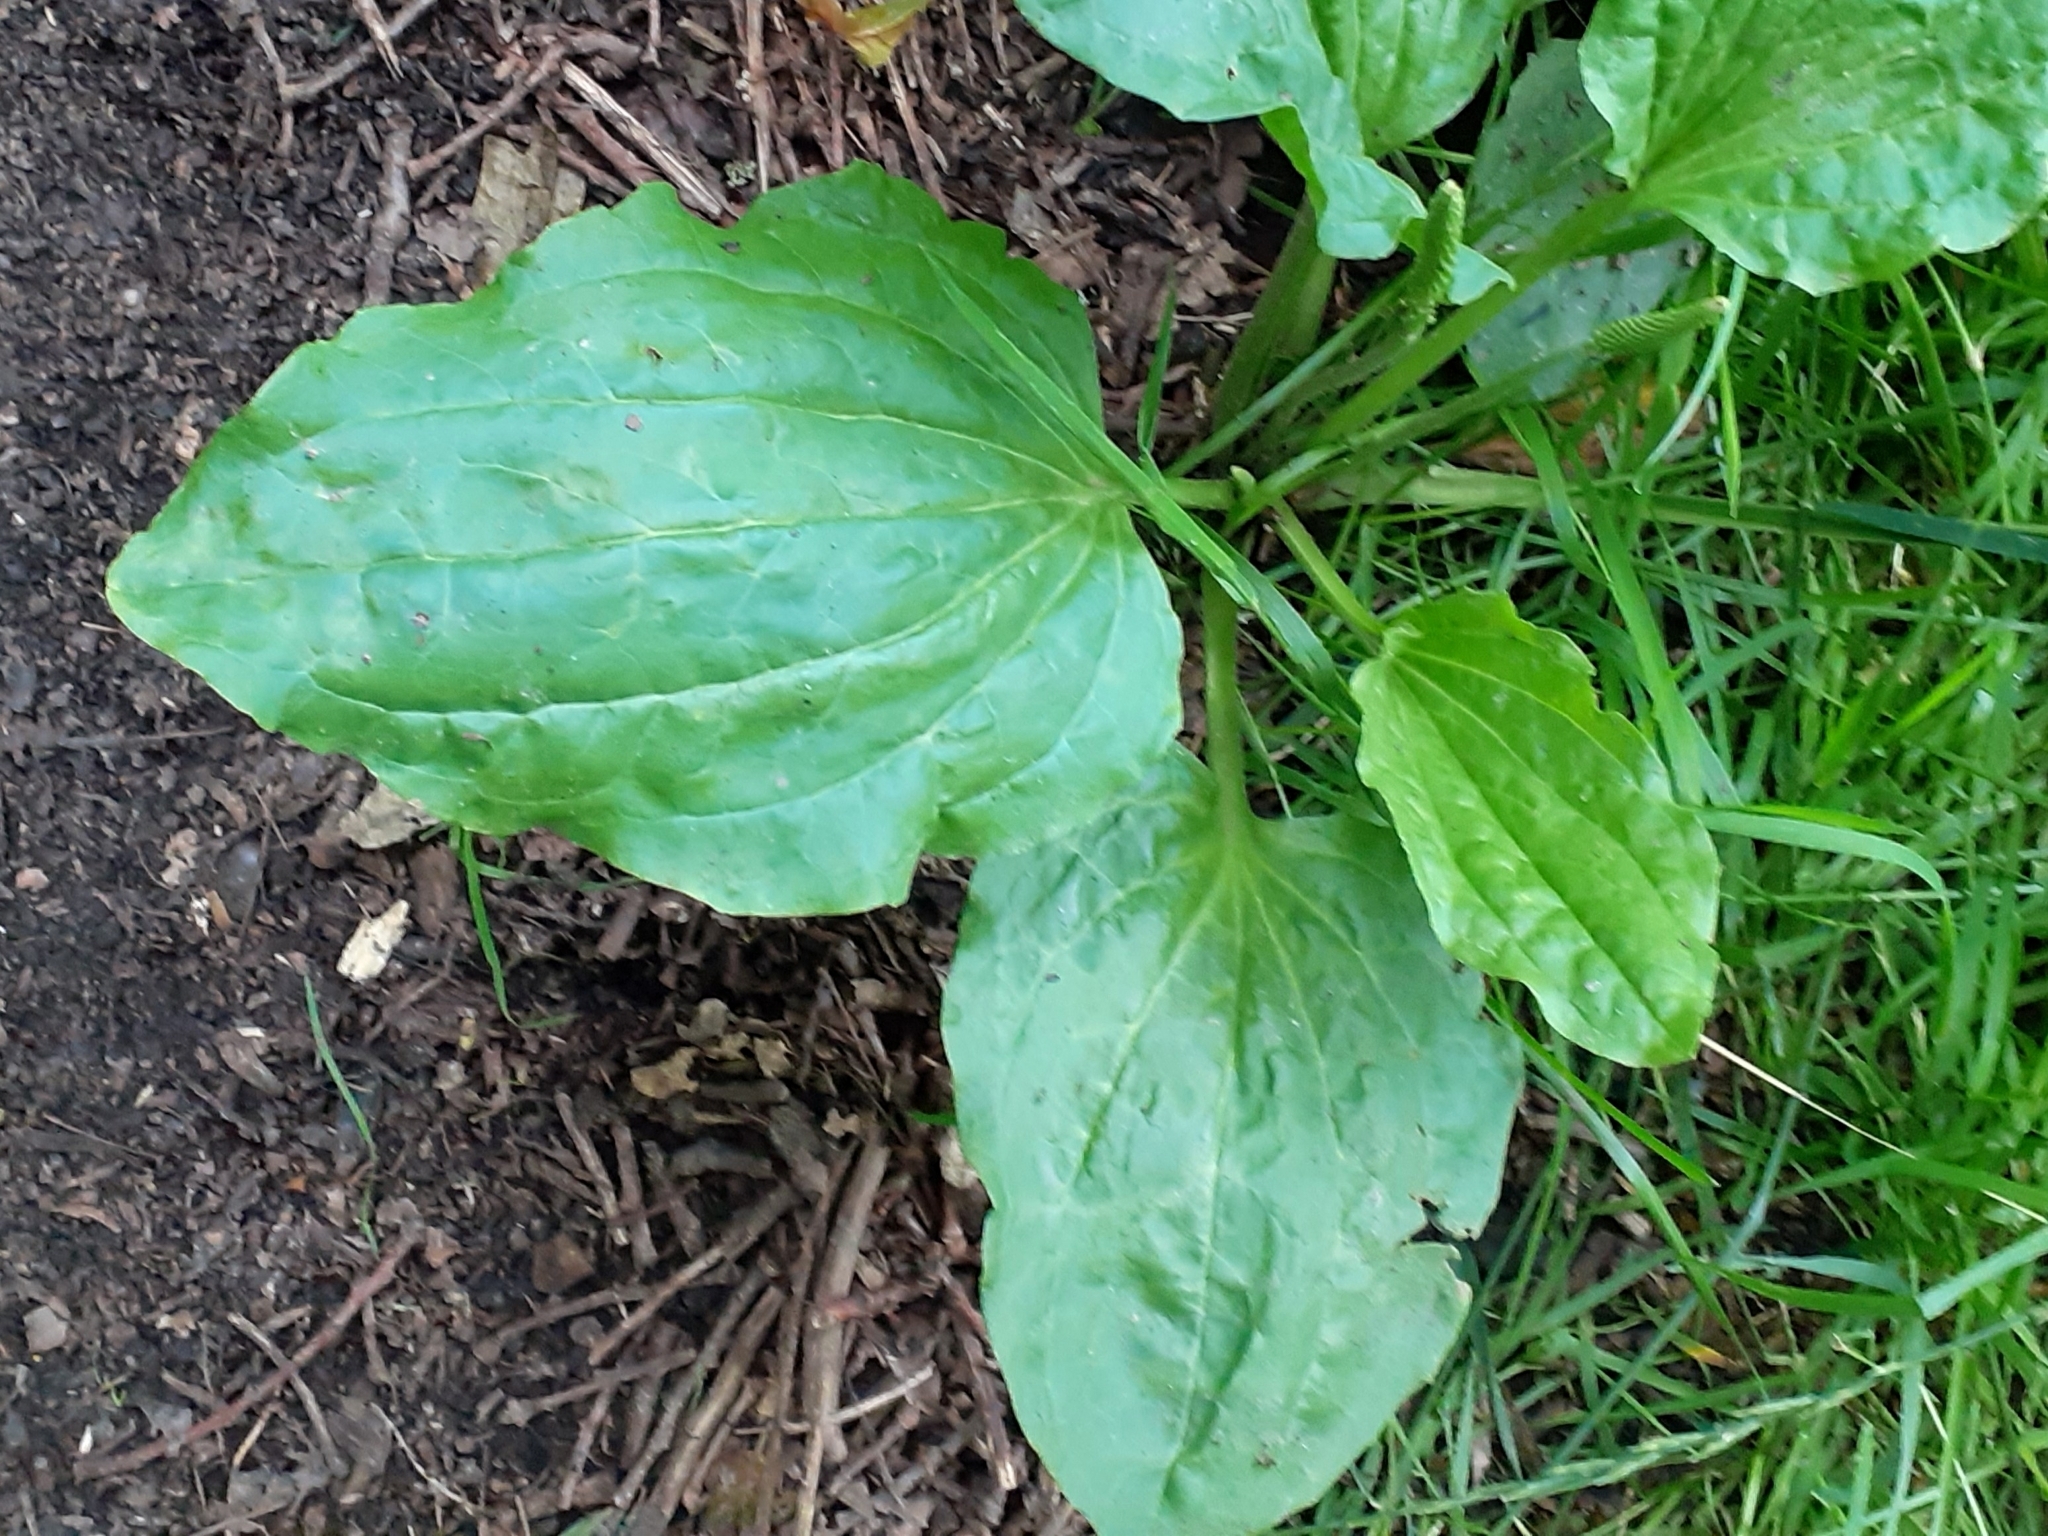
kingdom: Plantae
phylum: Tracheophyta
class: Magnoliopsida
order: Lamiales
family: Plantaginaceae
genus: Plantago
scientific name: Plantago major
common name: Common plantain
